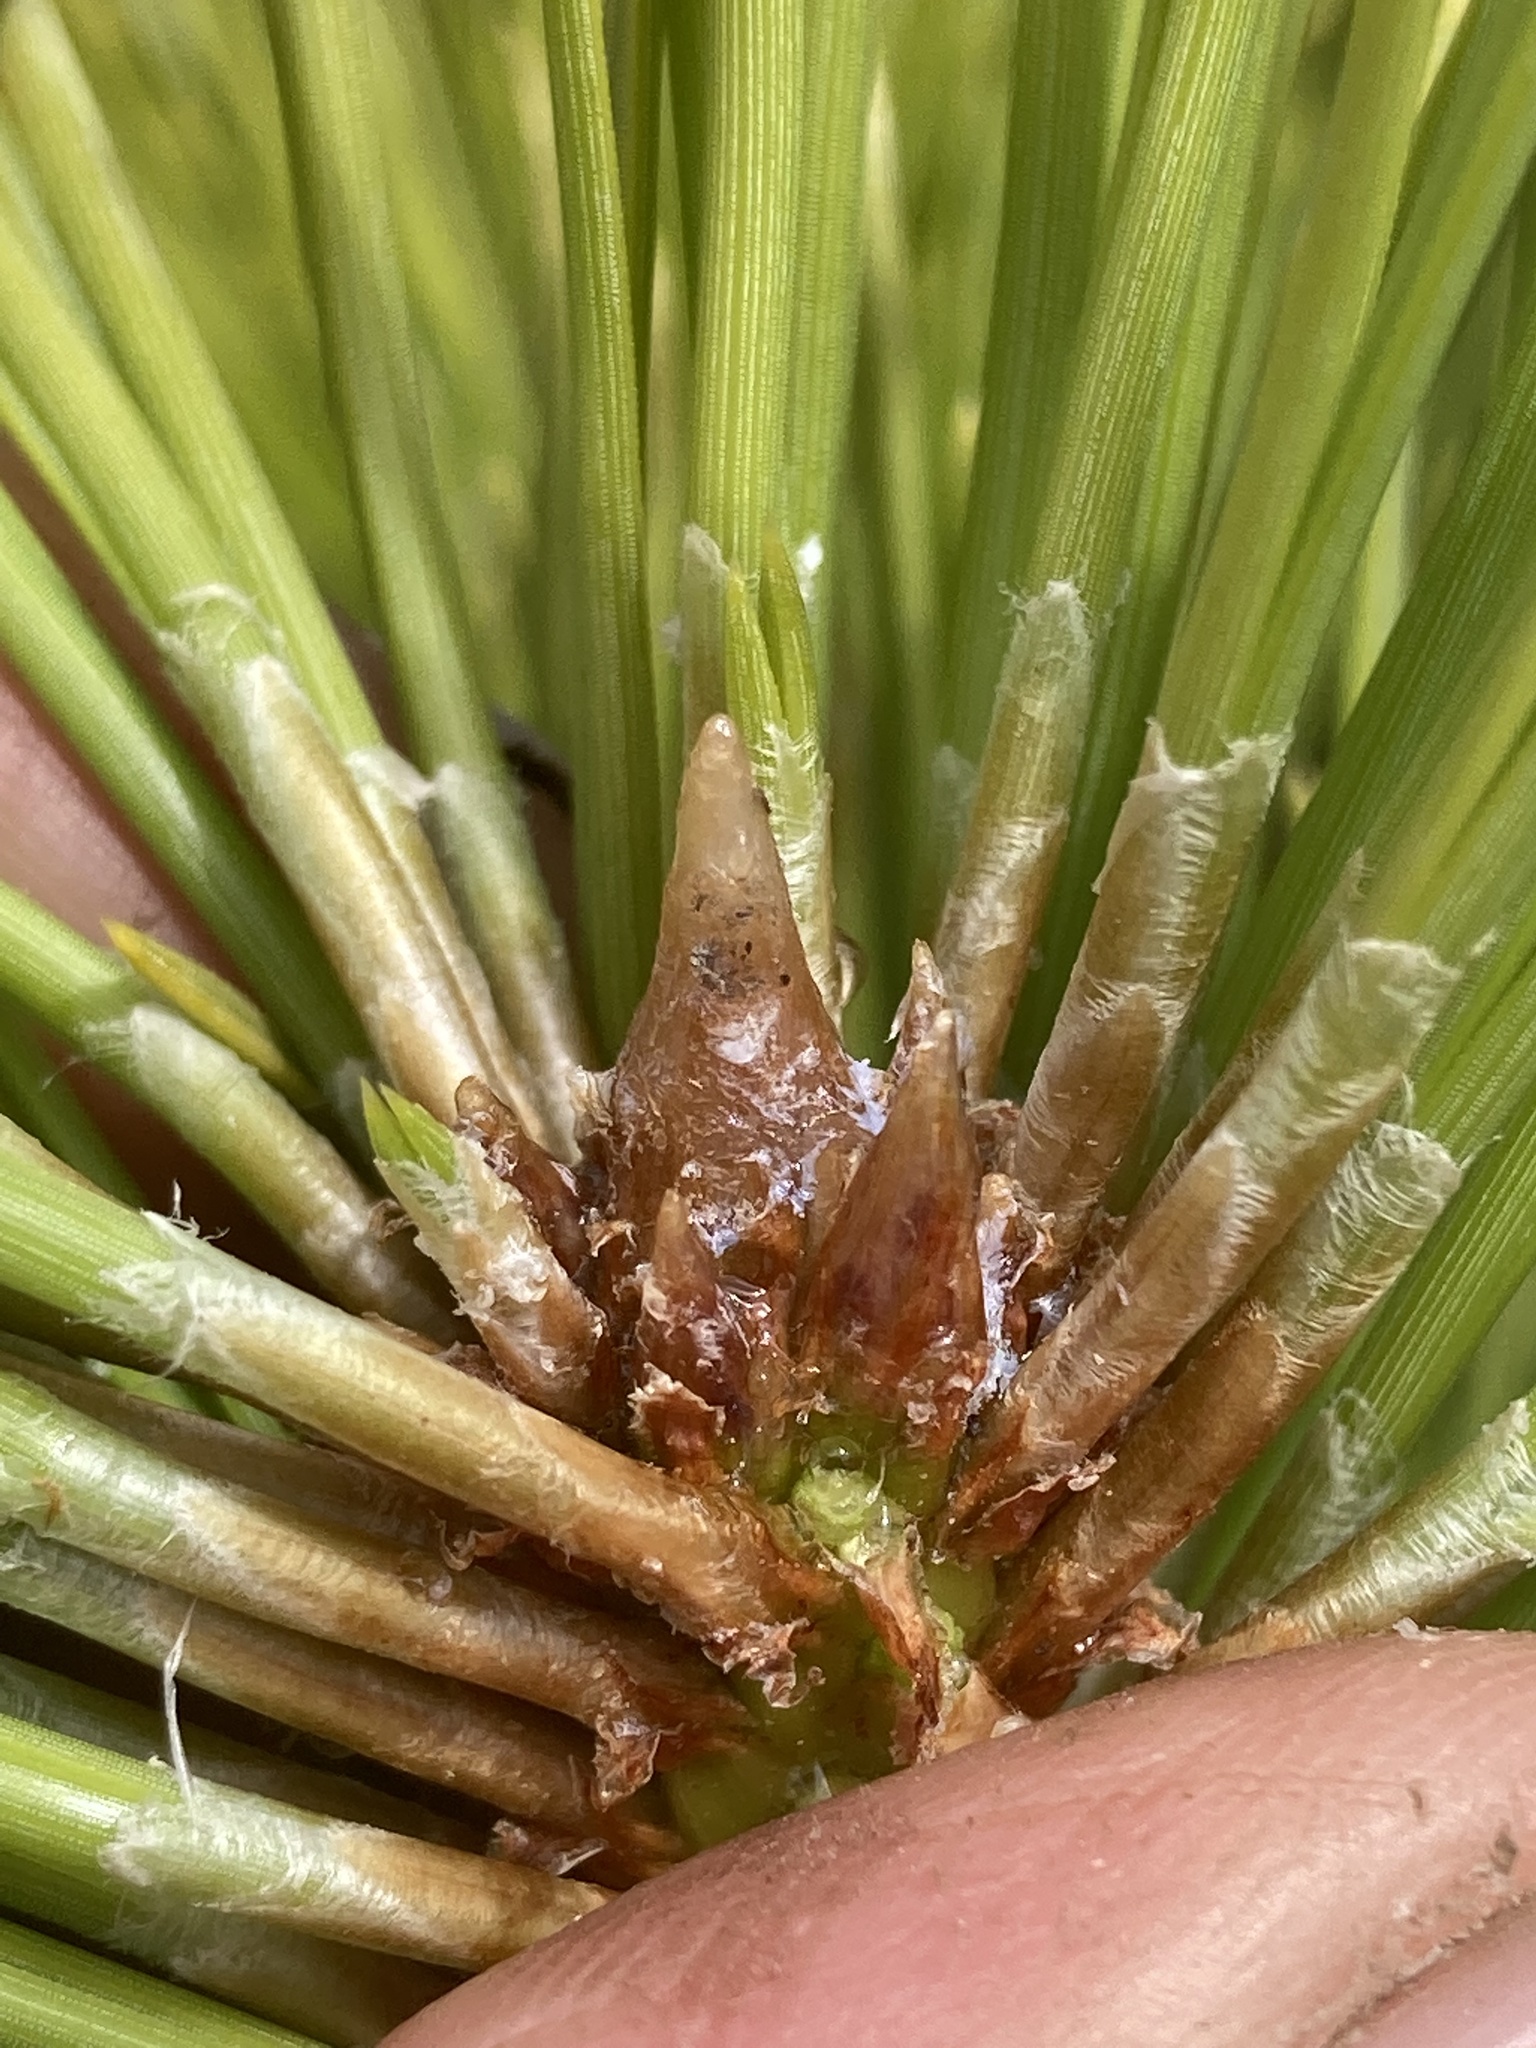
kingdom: Plantae
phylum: Tracheophyta
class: Pinopsida
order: Pinales
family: Pinaceae
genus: Pinus
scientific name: Pinus nigra
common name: Austrian pine
